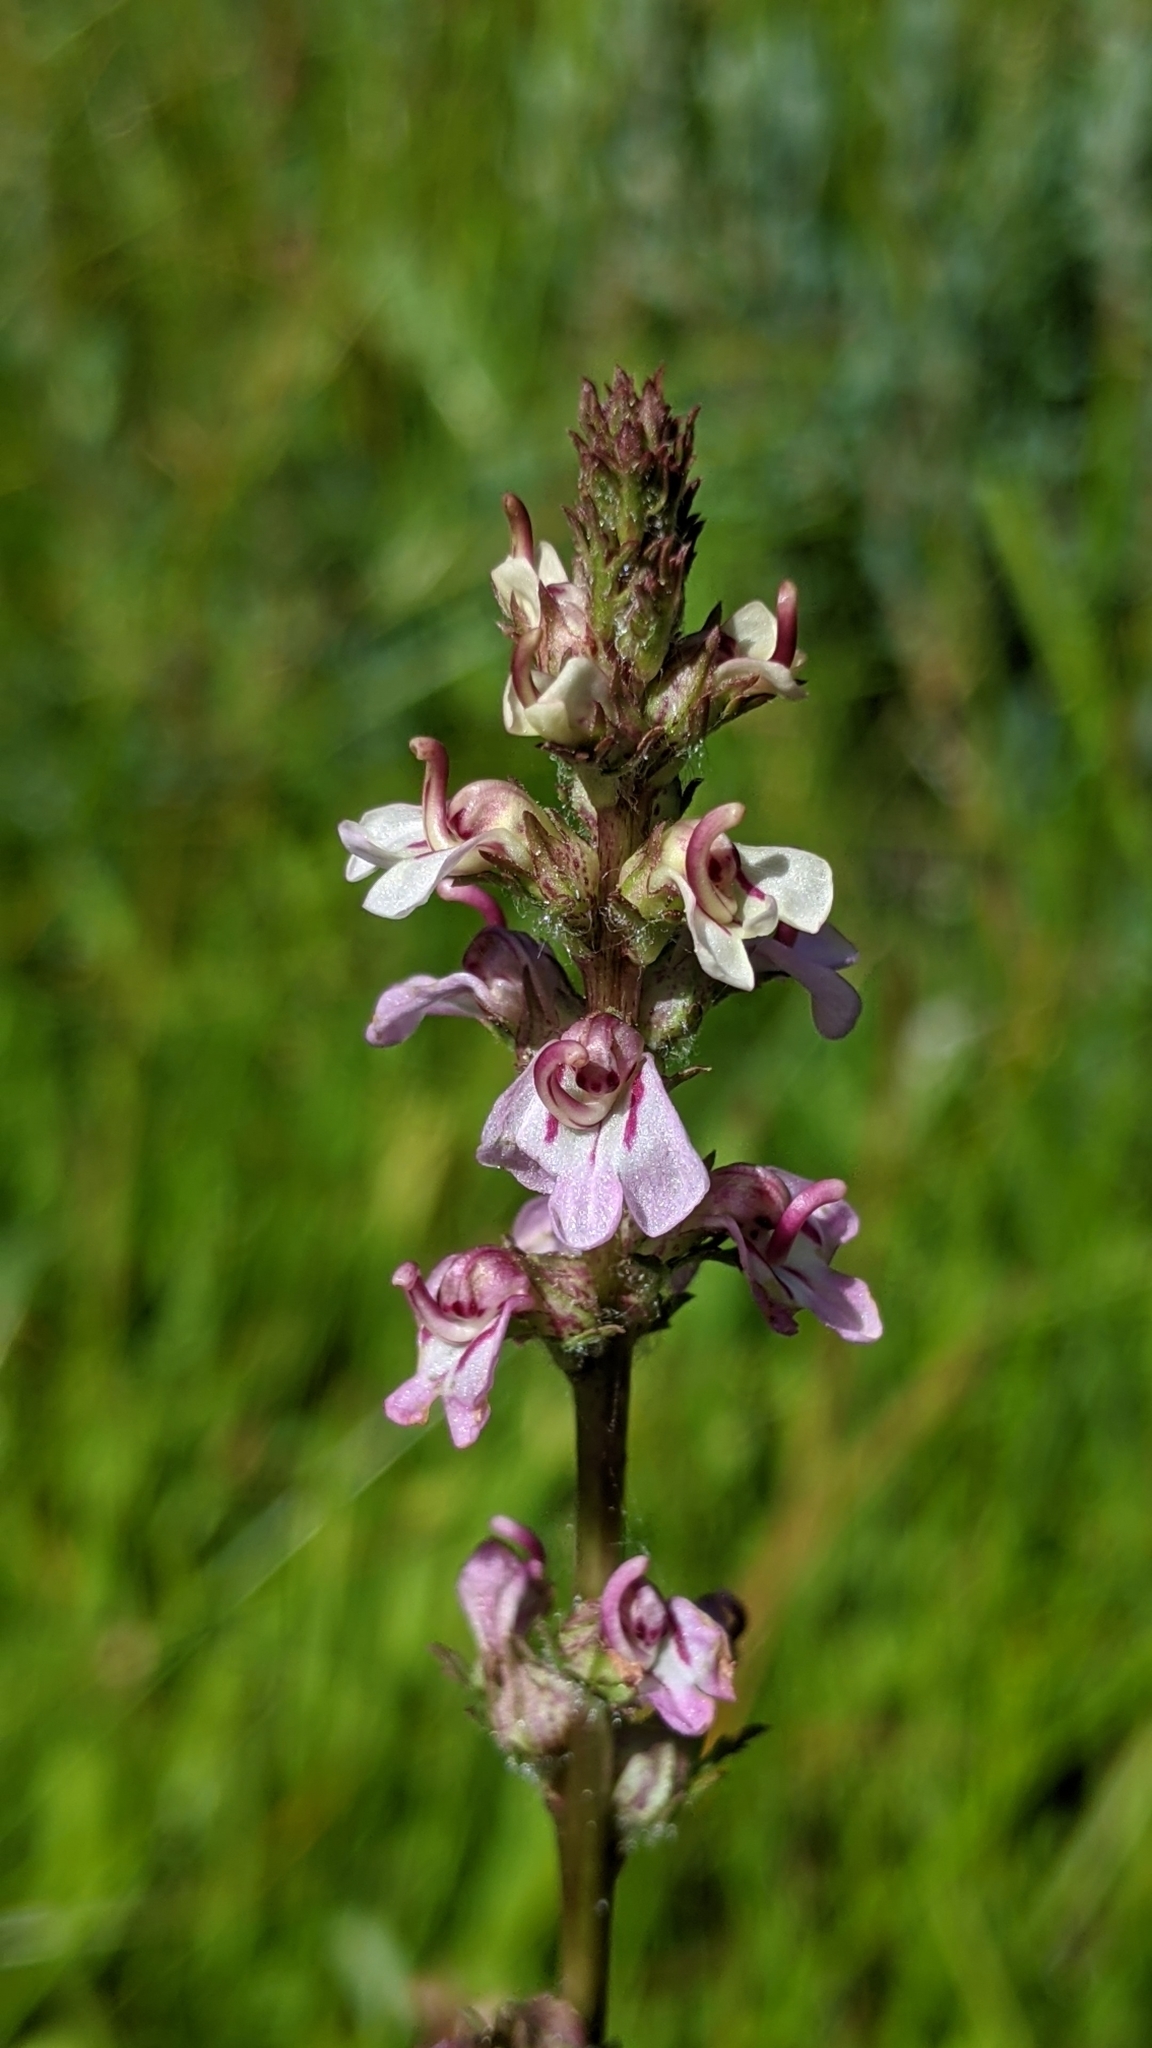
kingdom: Plantae
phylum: Tracheophyta
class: Magnoliopsida
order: Lamiales
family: Orobanchaceae
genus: Pedicularis
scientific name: Pedicularis attollens
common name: Slender pedicularis
